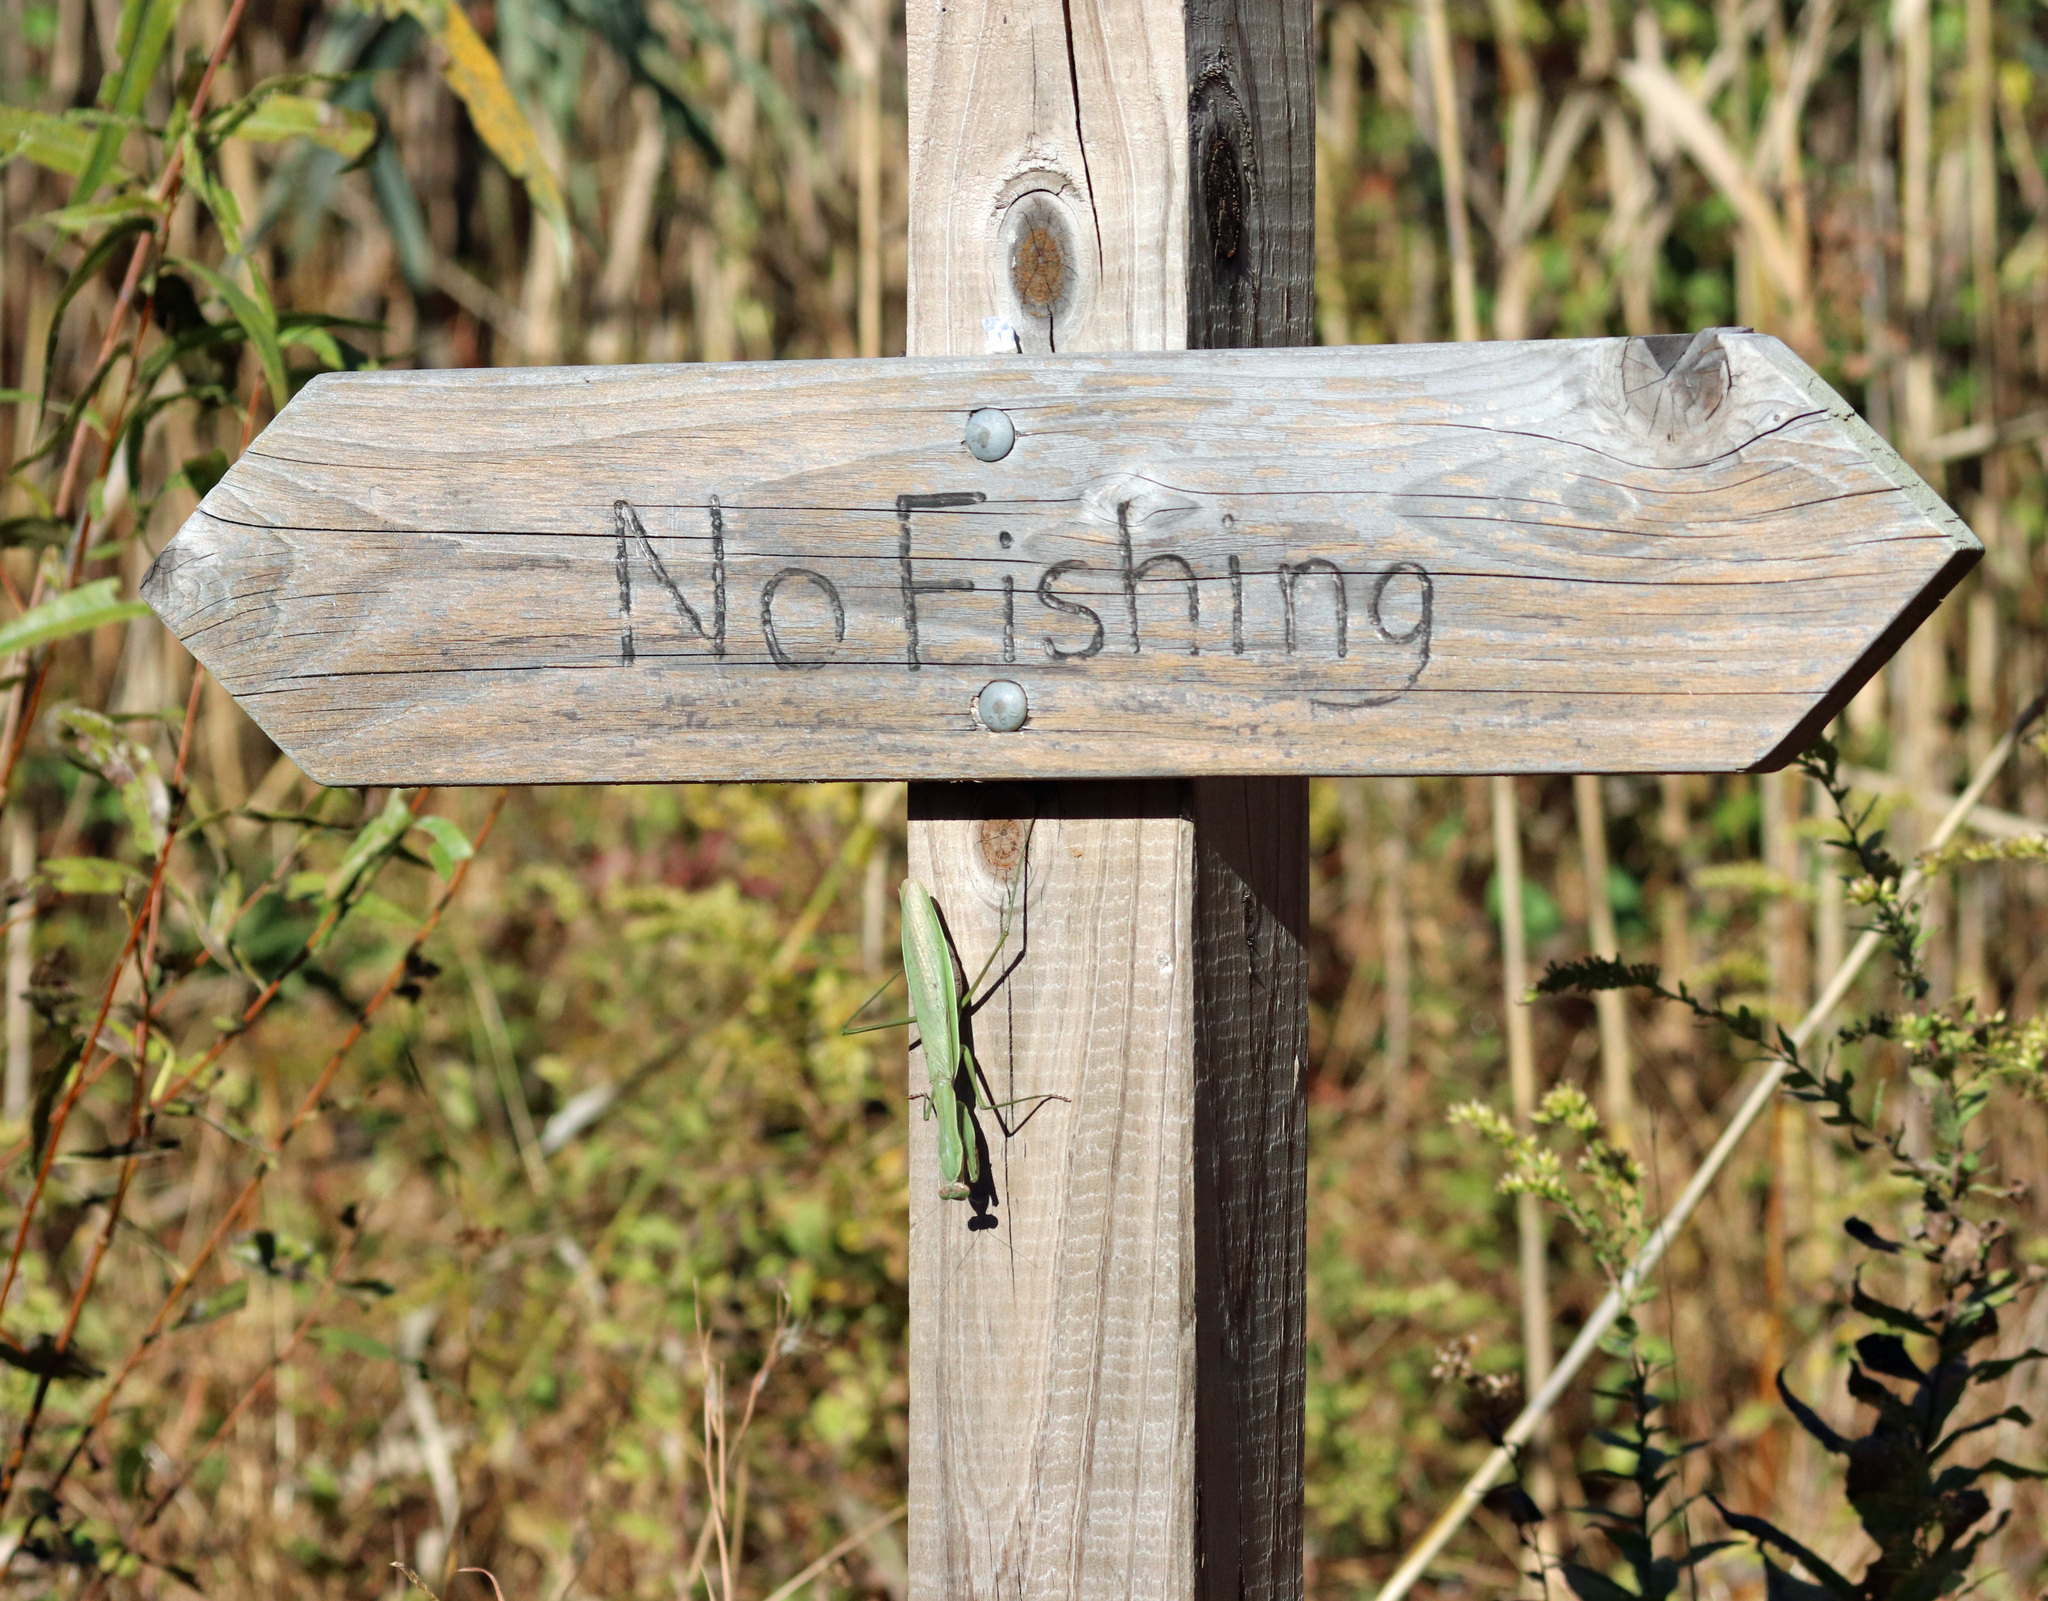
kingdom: Animalia
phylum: Arthropoda
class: Insecta
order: Mantodea
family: Mantidae
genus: Tenodera
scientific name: Tenodera sinensis
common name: Chinese mantis
